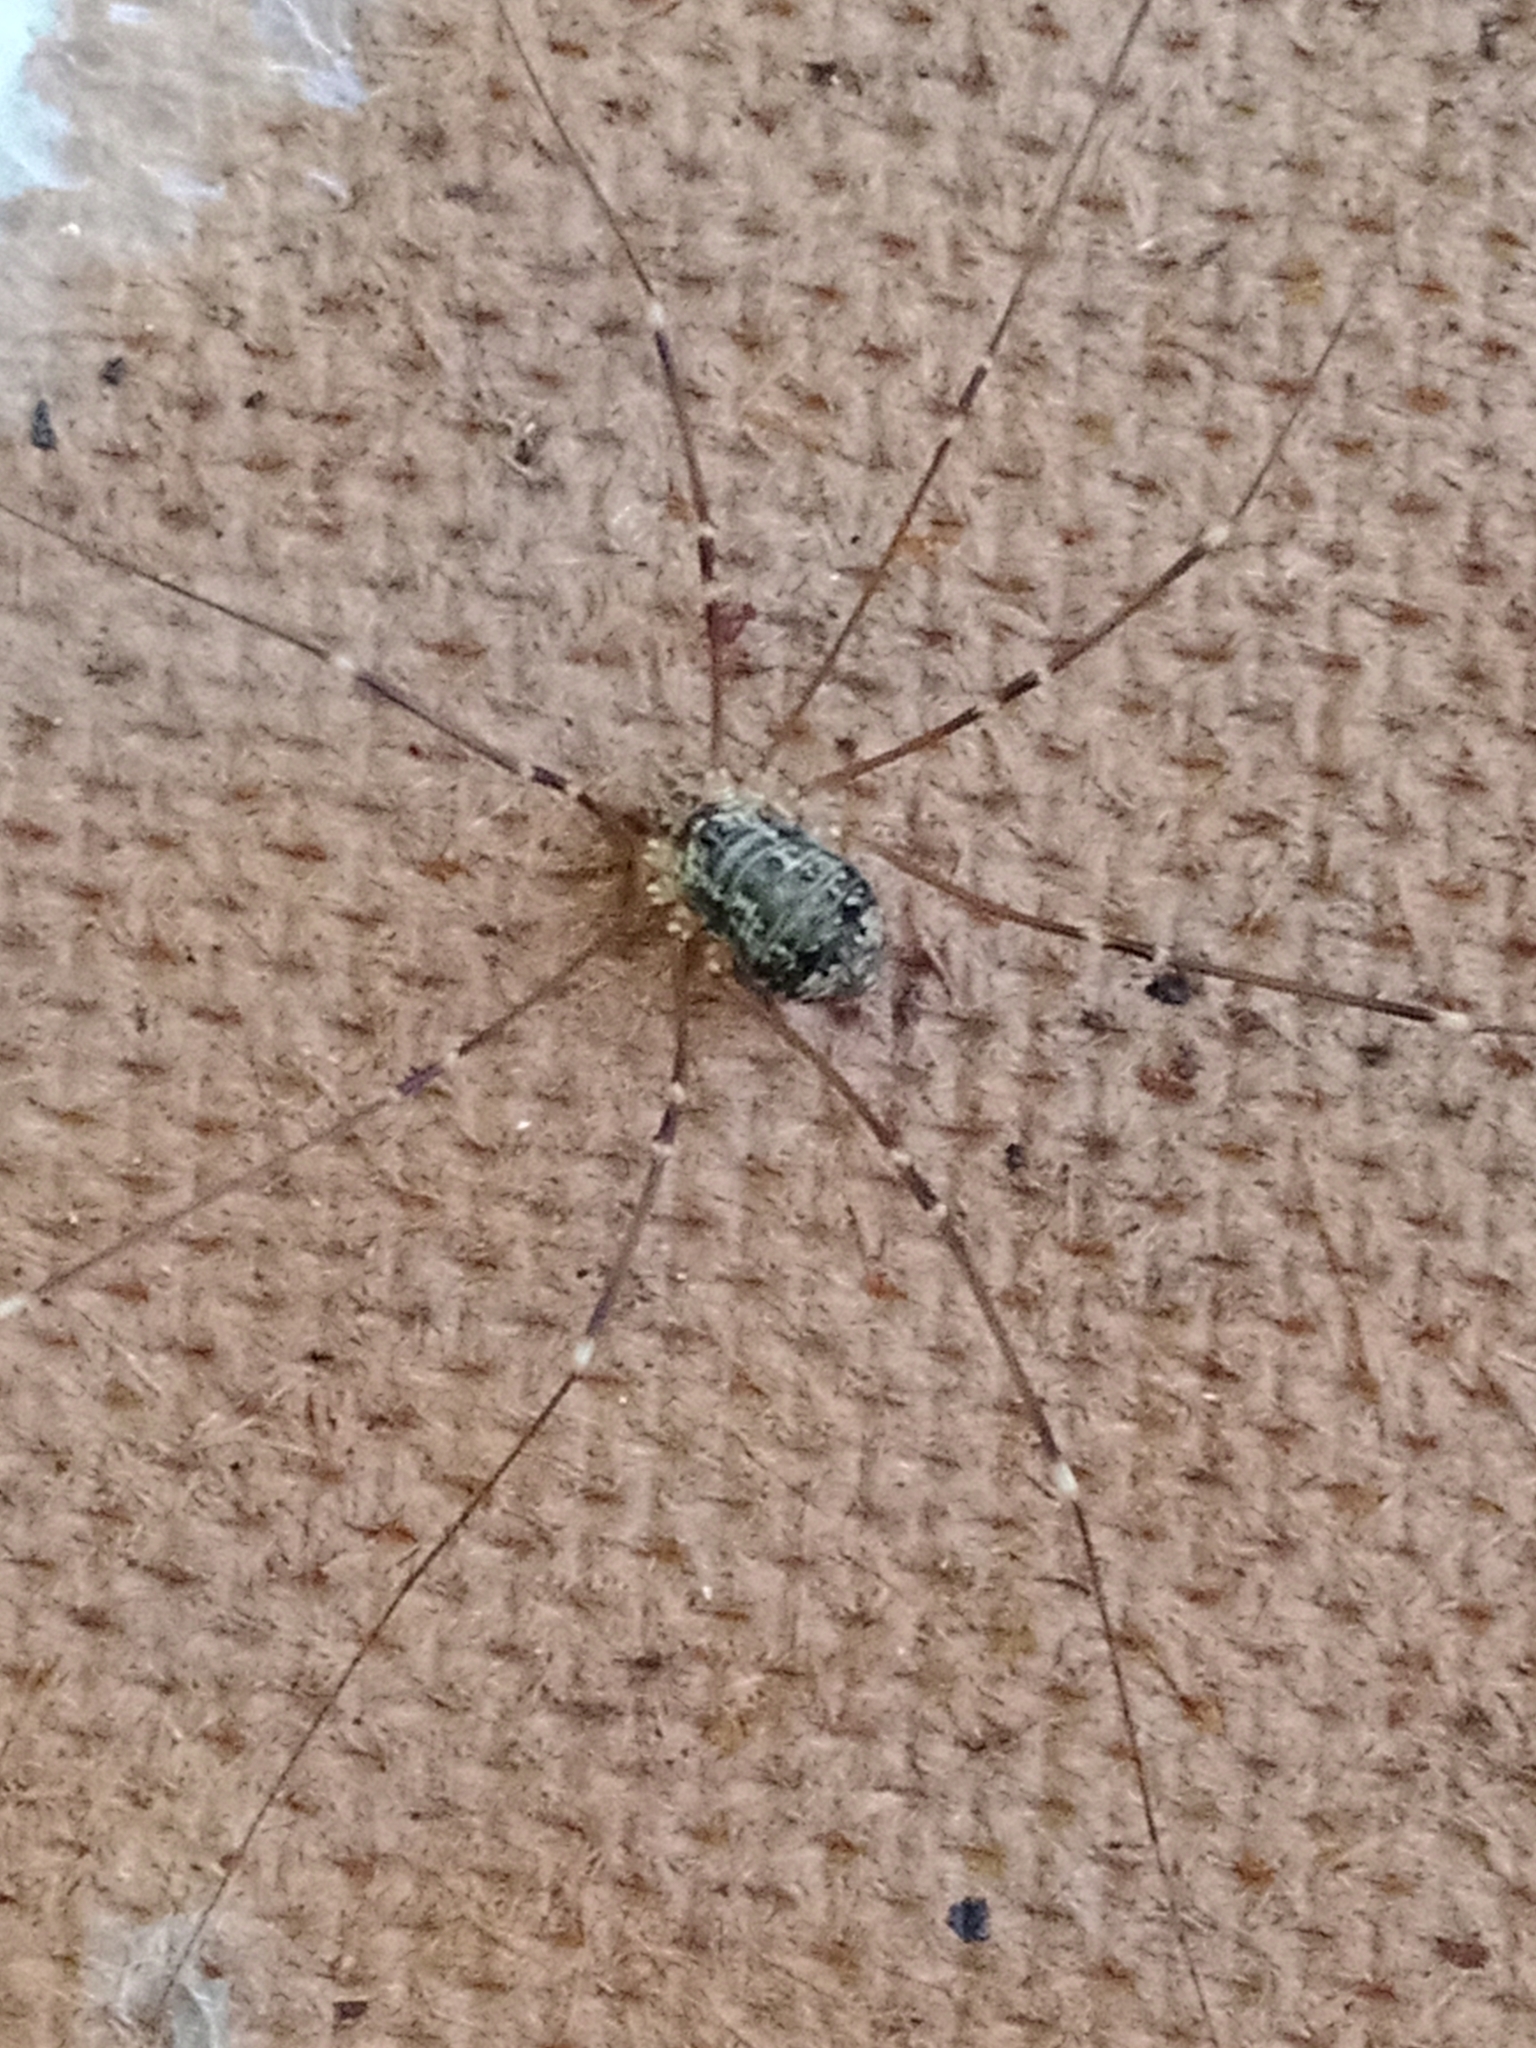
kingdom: Animalia
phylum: Arthropoda
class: Arachnida
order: Opiliones
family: Sclerosomatidae
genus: Leiobunum
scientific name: Leiobunum gracile
